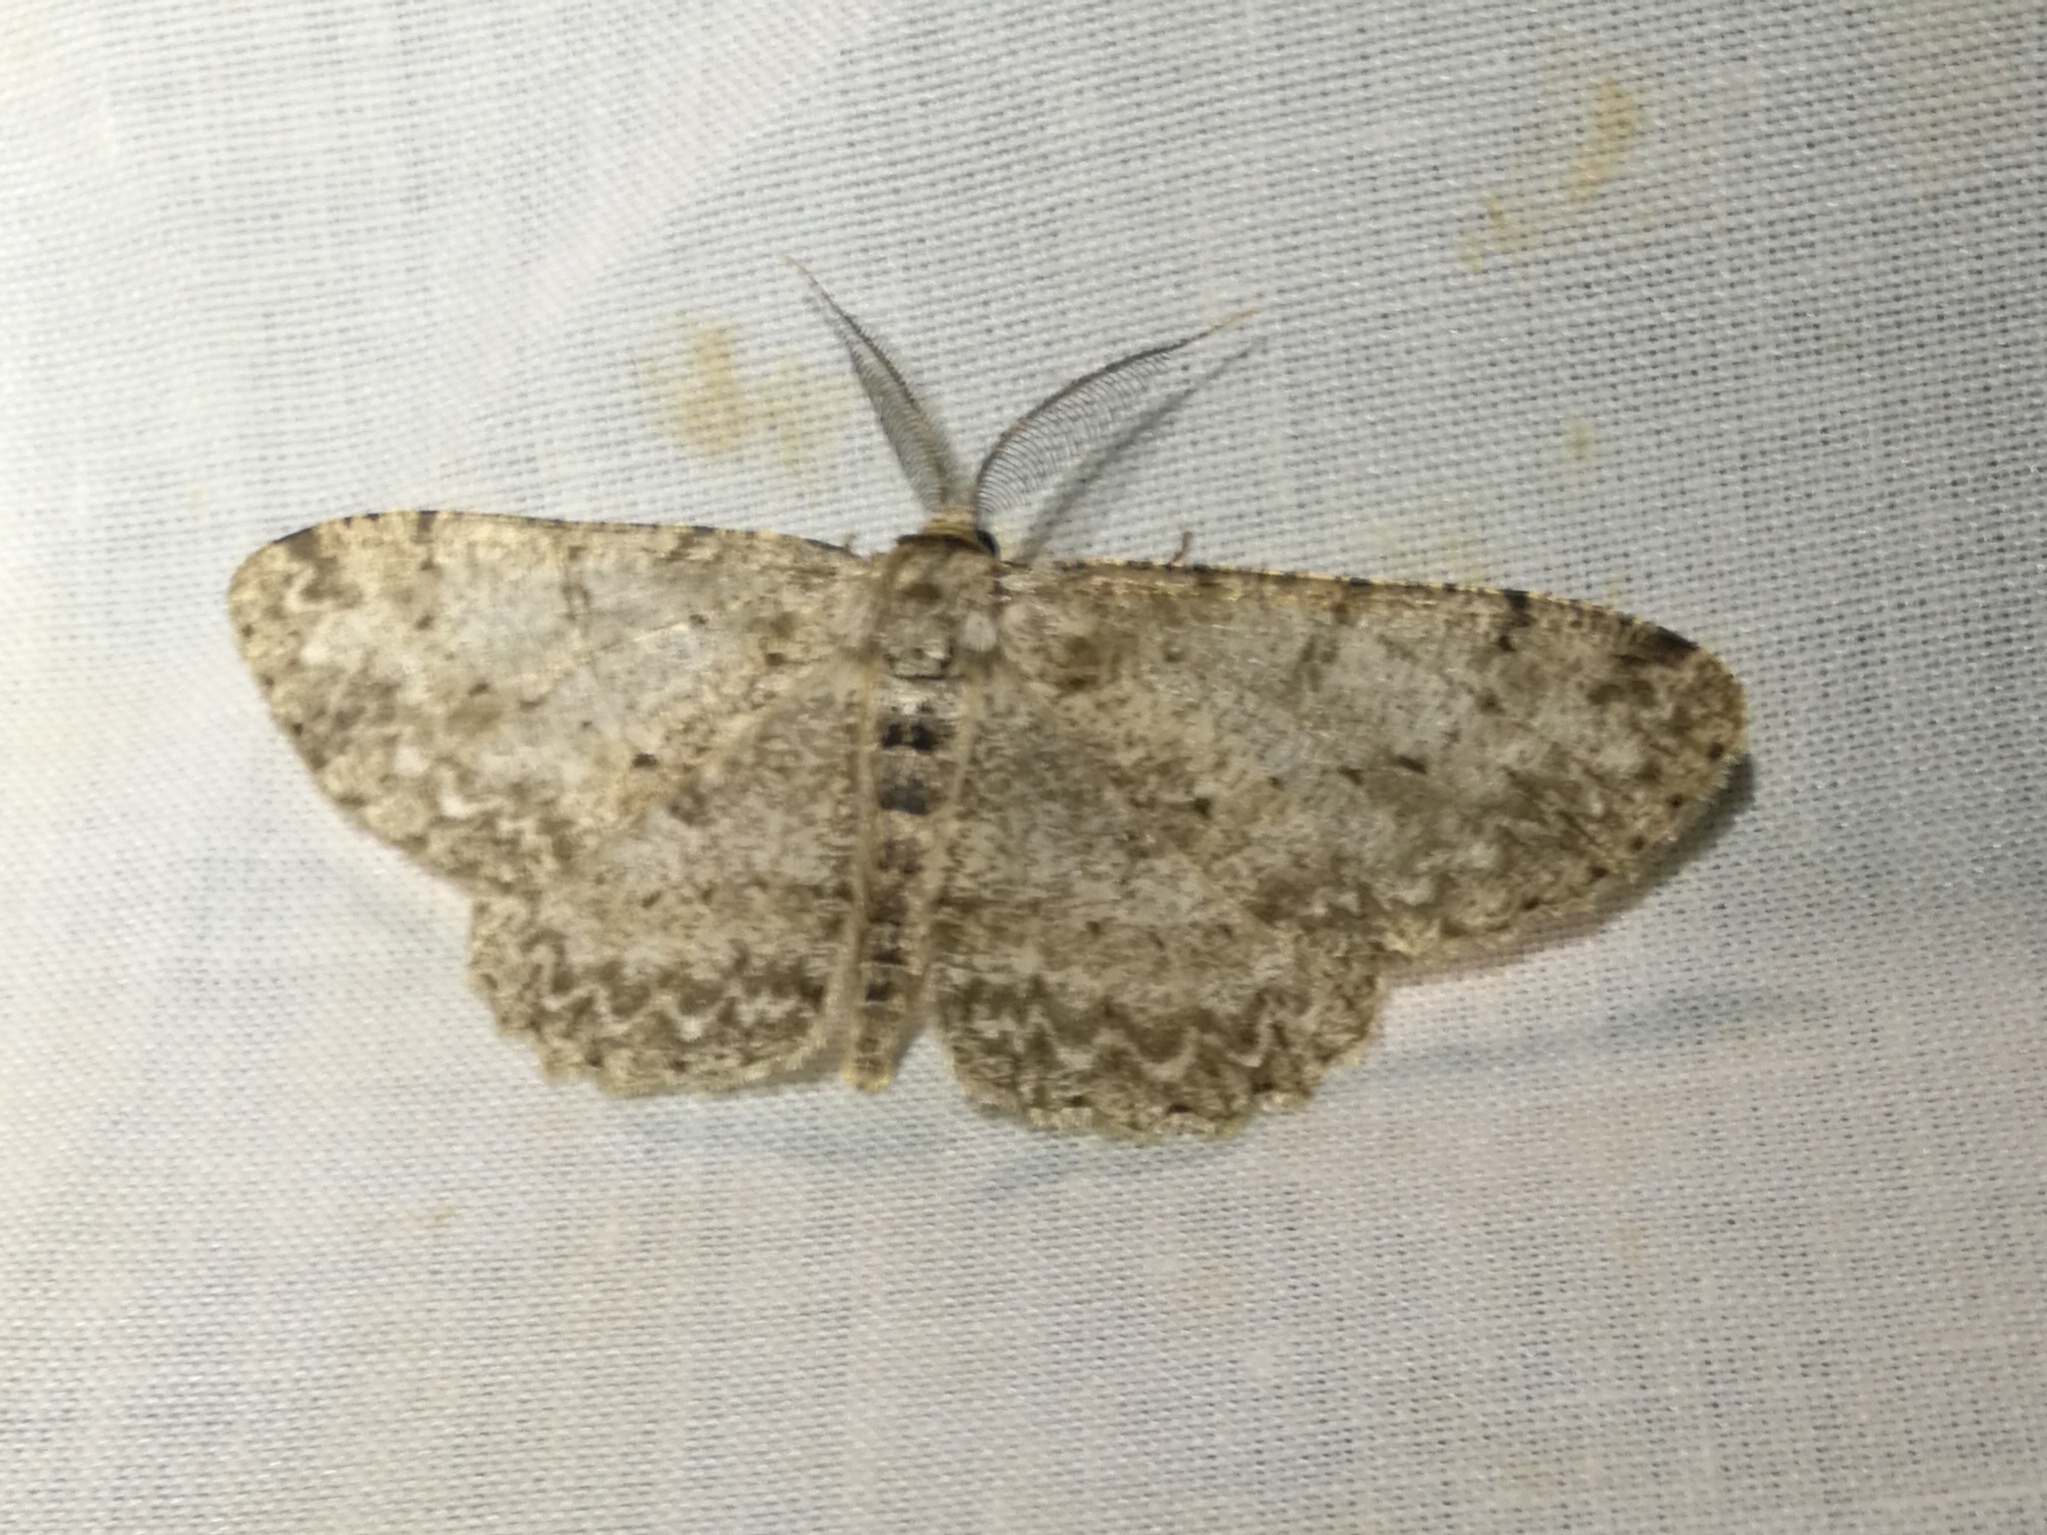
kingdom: Animalia
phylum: Arthropoda
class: Insecta
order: Lepidoptera
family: Geometridae
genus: Hypomecis
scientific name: Hypomecis punctinalis
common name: Pale oak beauty
